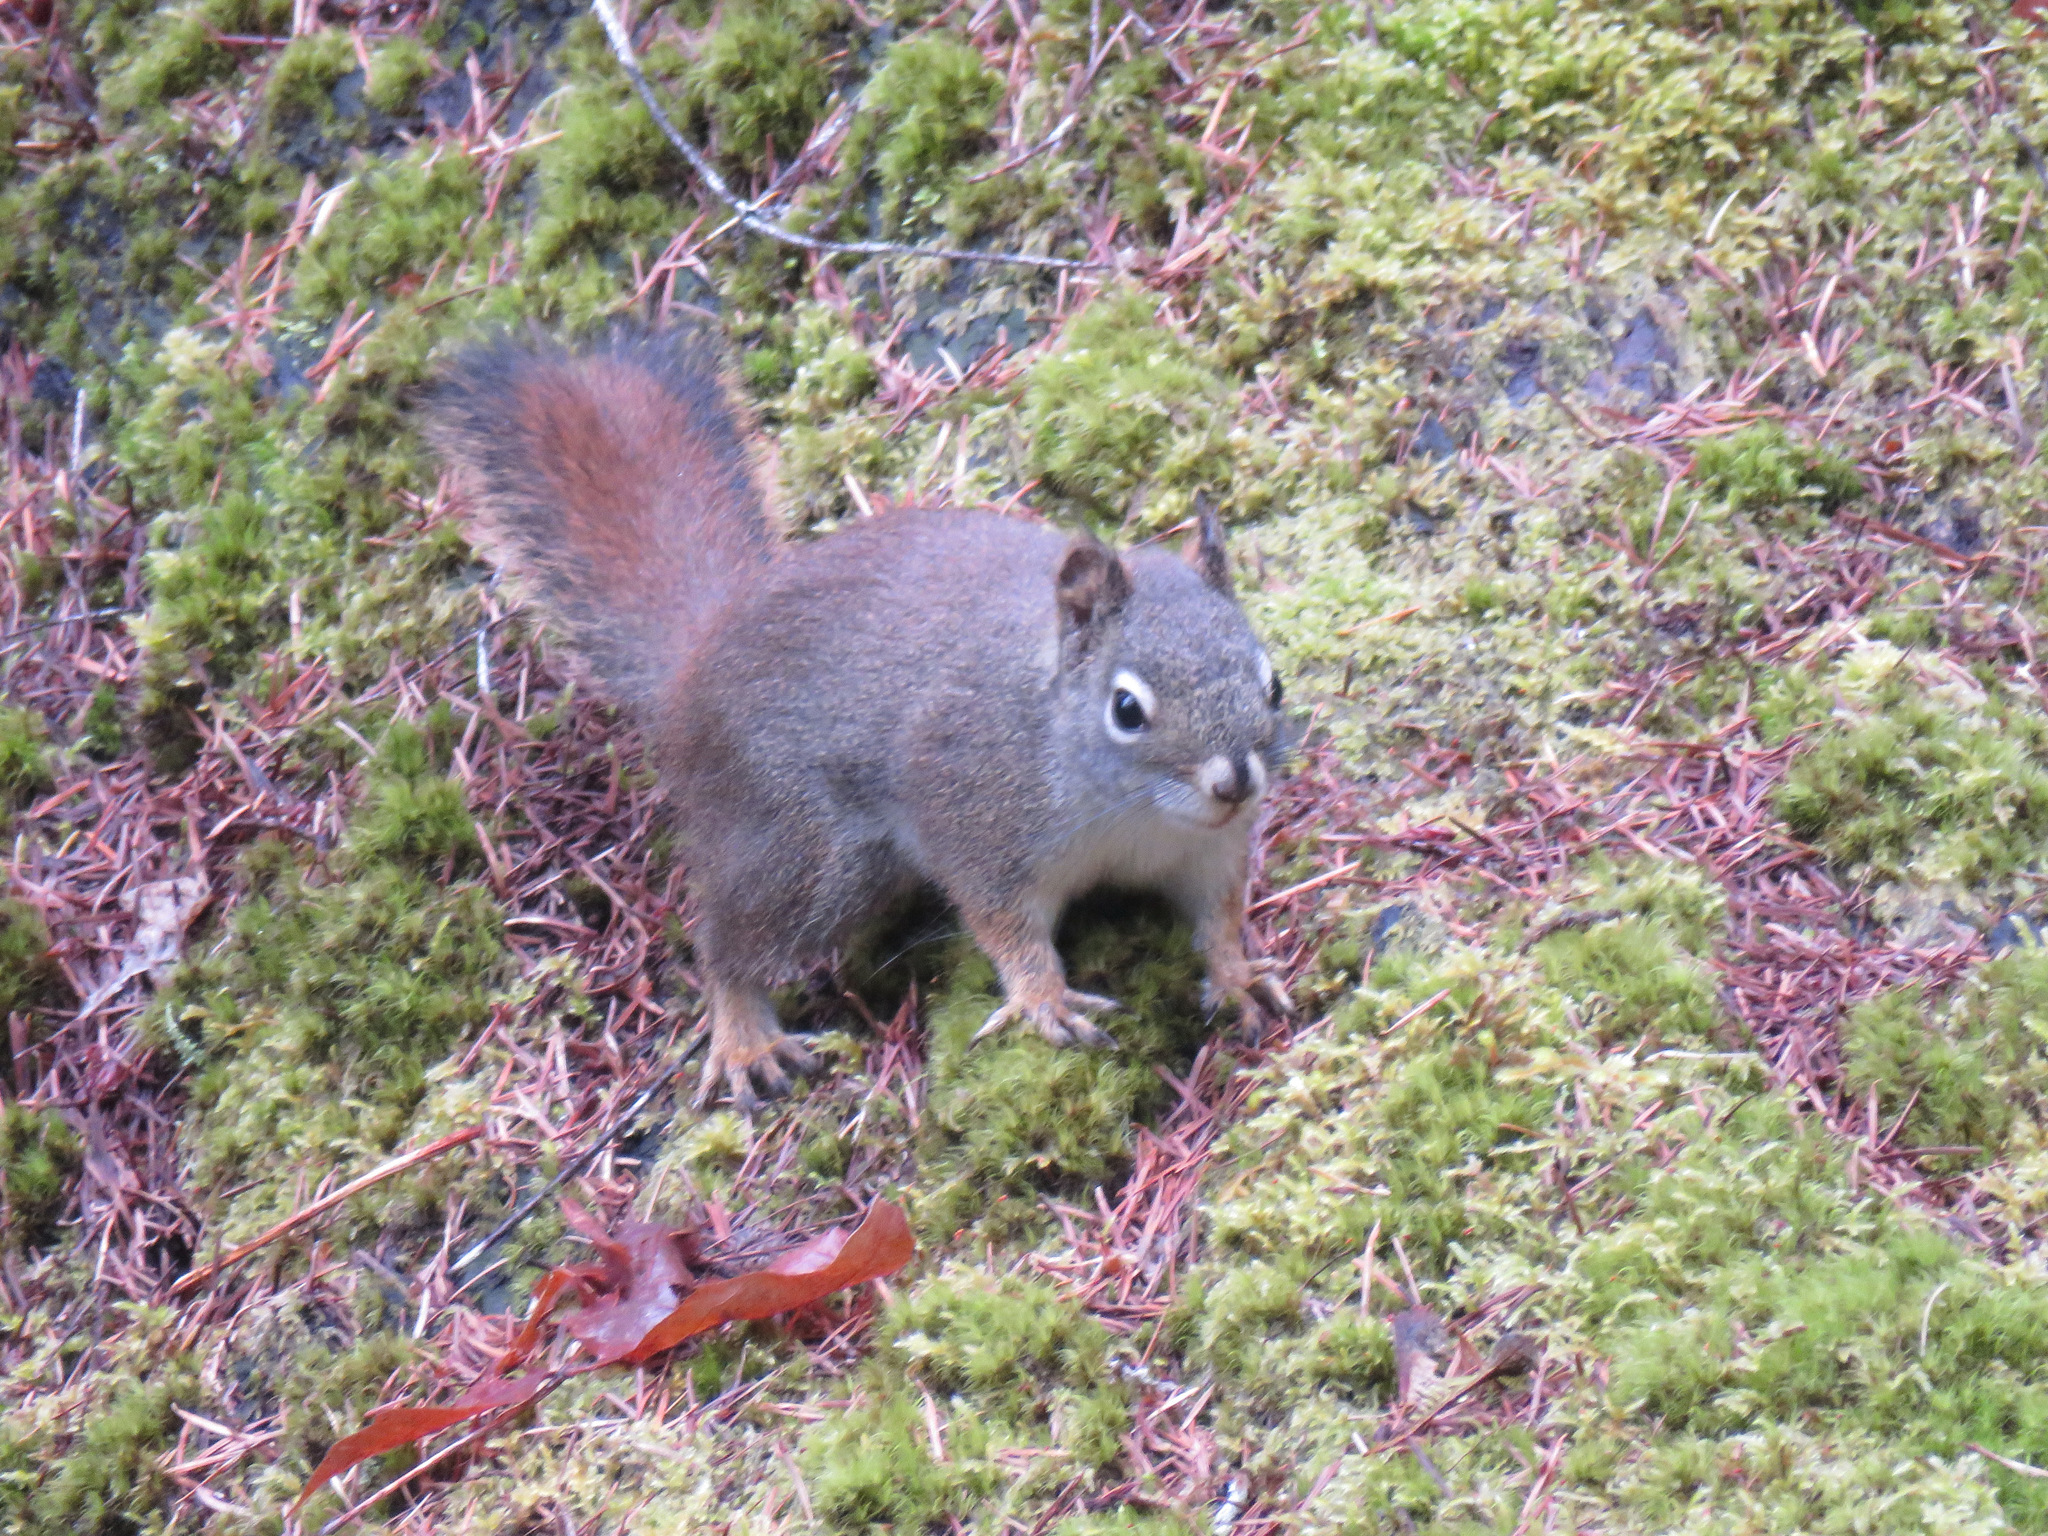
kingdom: Animalia
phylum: Chordata
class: Mammalia
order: Rodentia
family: Sciuridae
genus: Tamiasciurus
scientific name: Tamiasciurus hudsonicus
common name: Red squirrel
